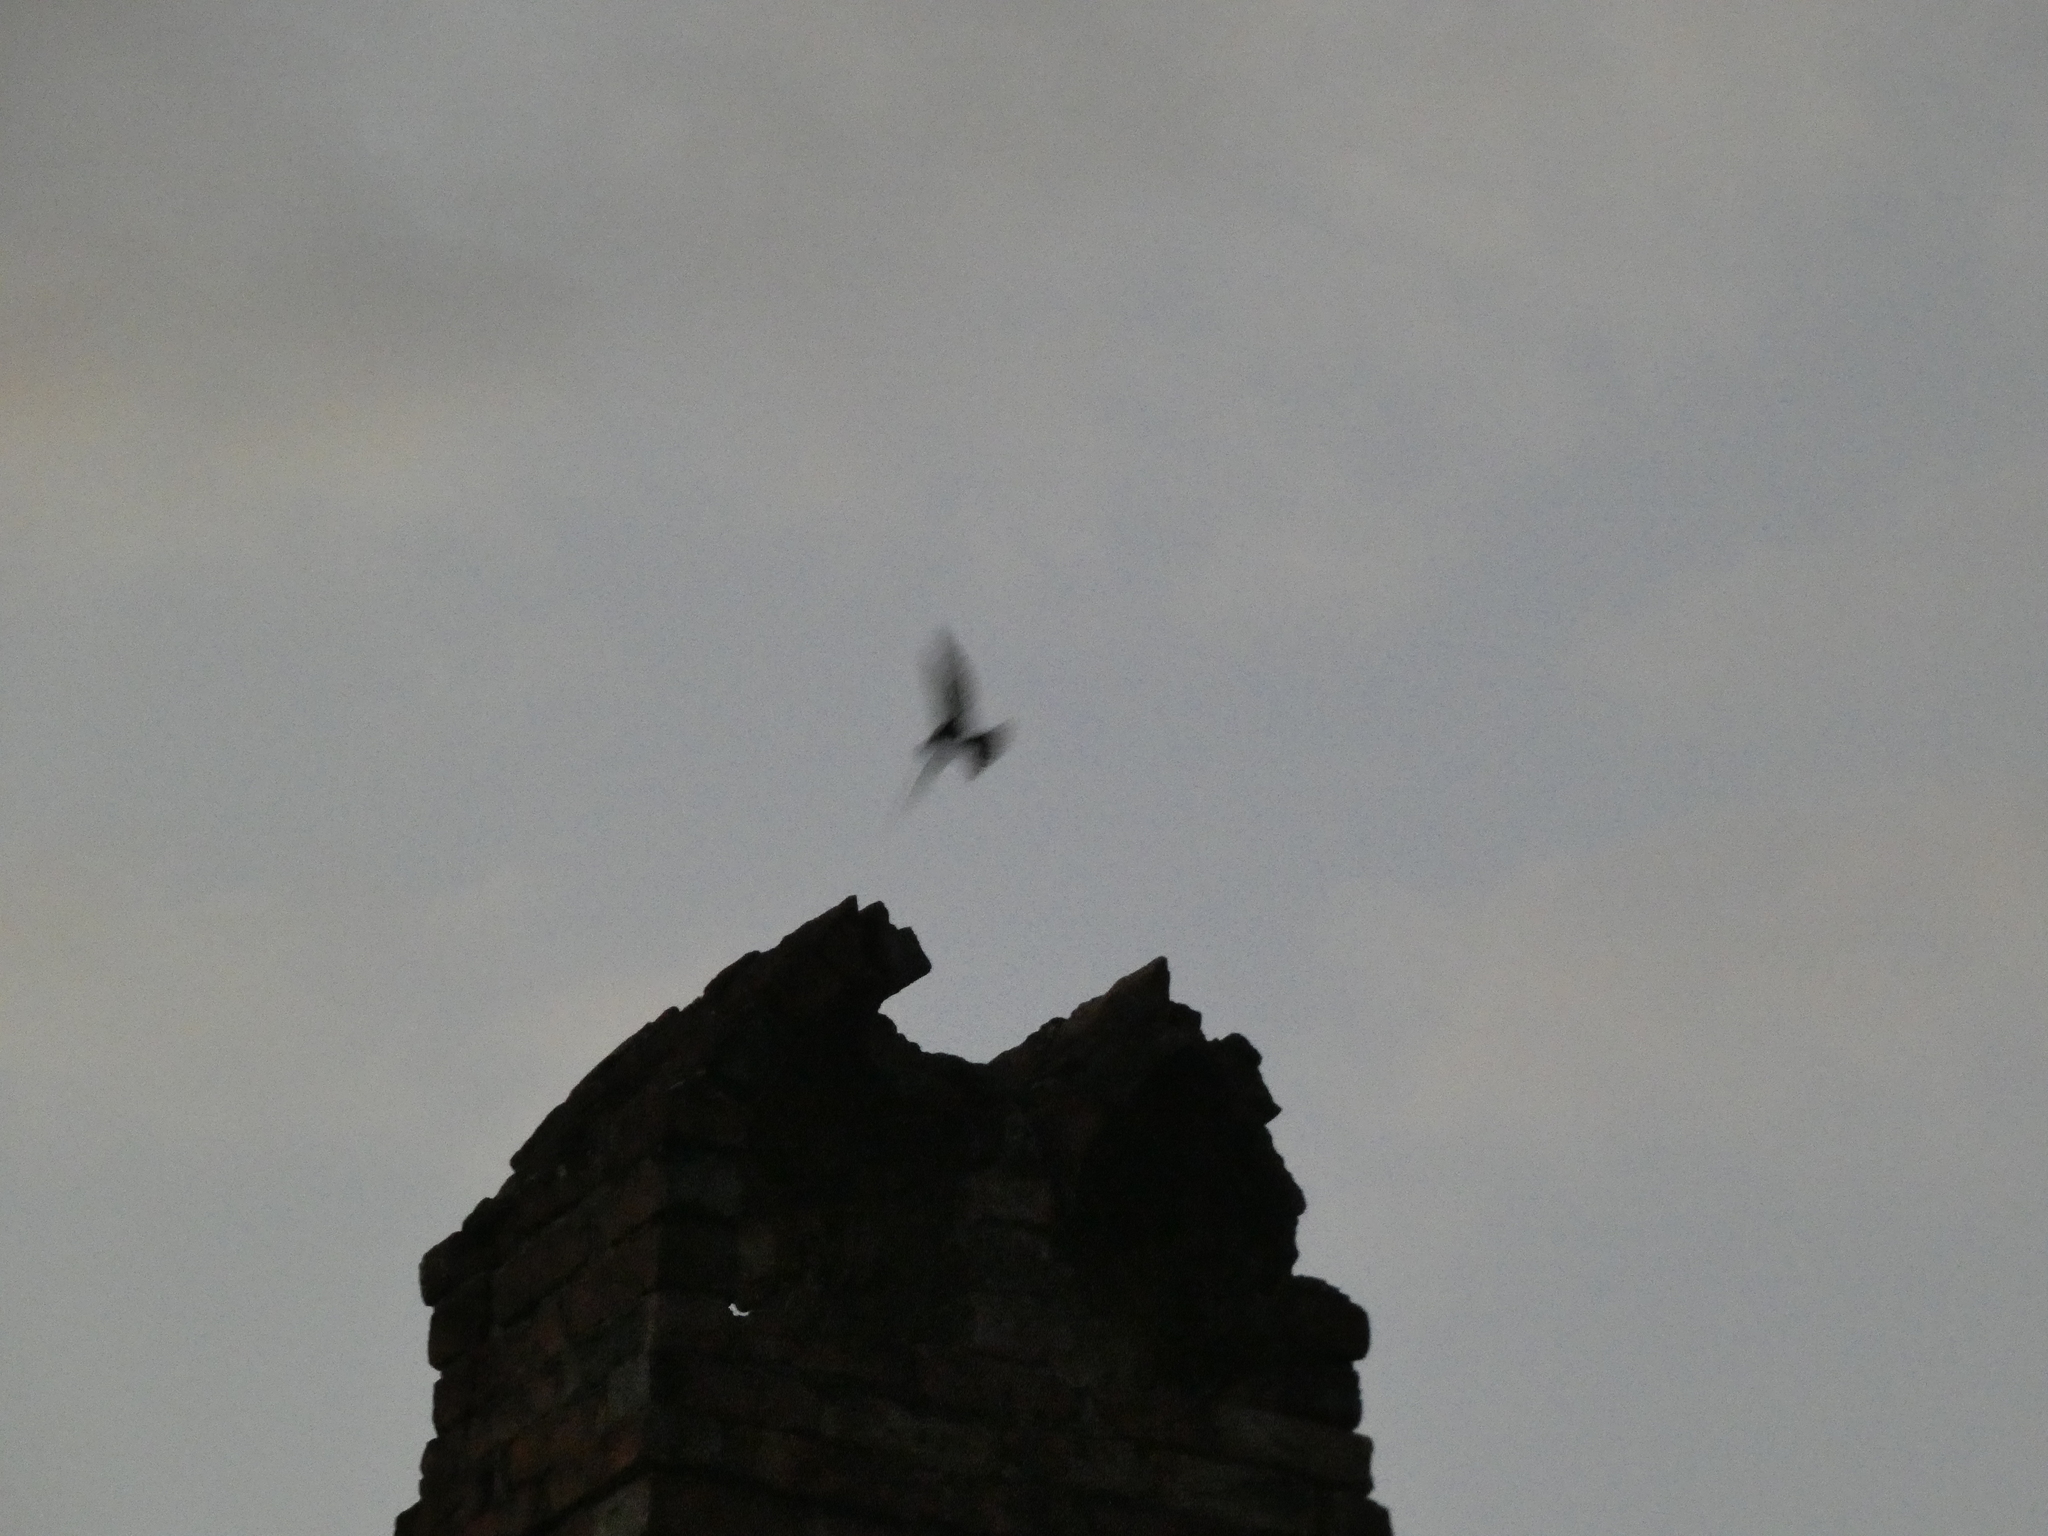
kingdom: Animalia
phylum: Chordata
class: Aves
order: Apodiformes
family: Apodidae
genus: Chaetura
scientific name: Chaetura pelagica
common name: Chimney swift
